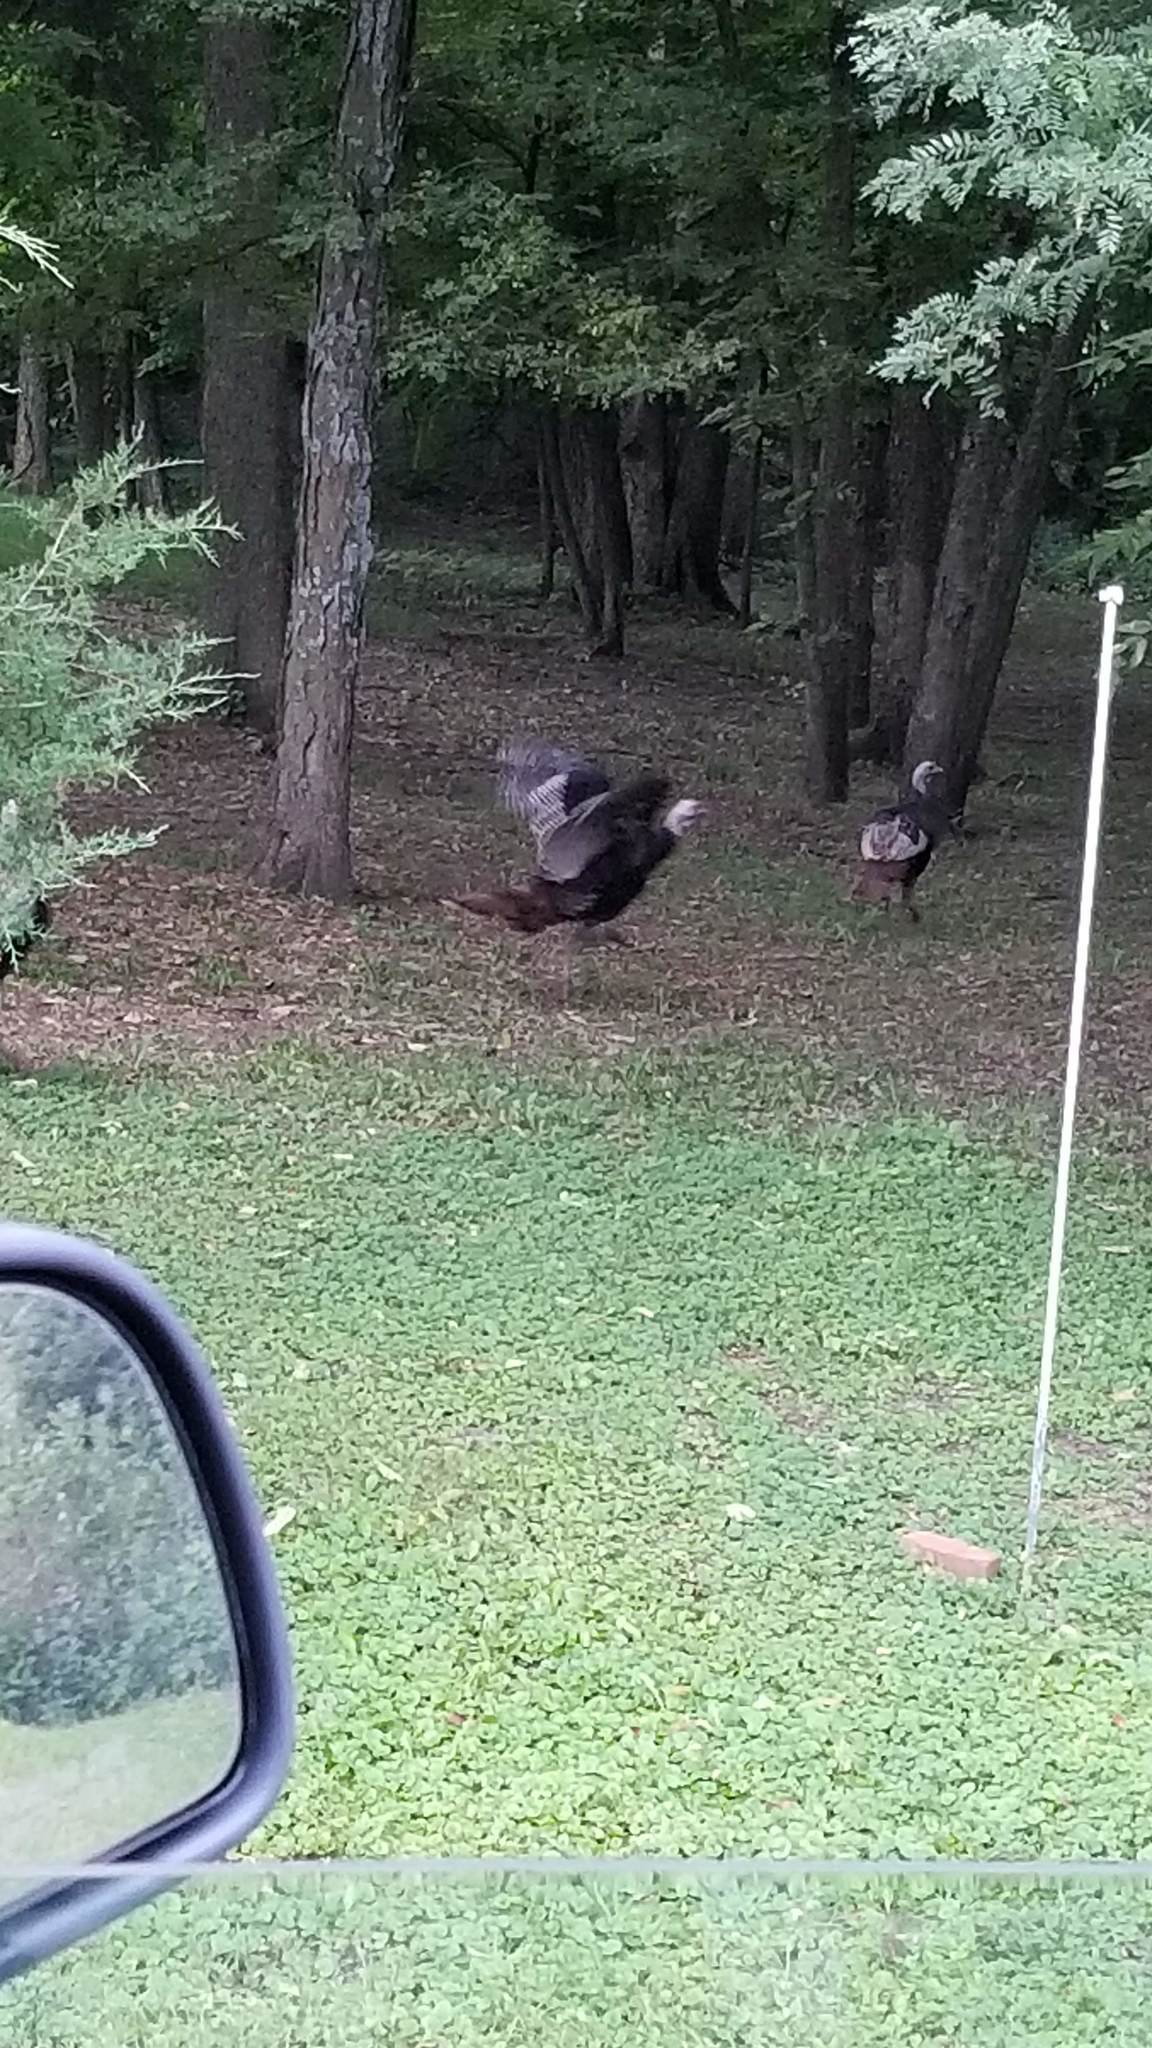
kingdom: Animalia
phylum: Chordata
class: Aves
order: Galliformes
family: Phasianidae
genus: Meleagris
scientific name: Meleagris gallopavo
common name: Wild turkey
